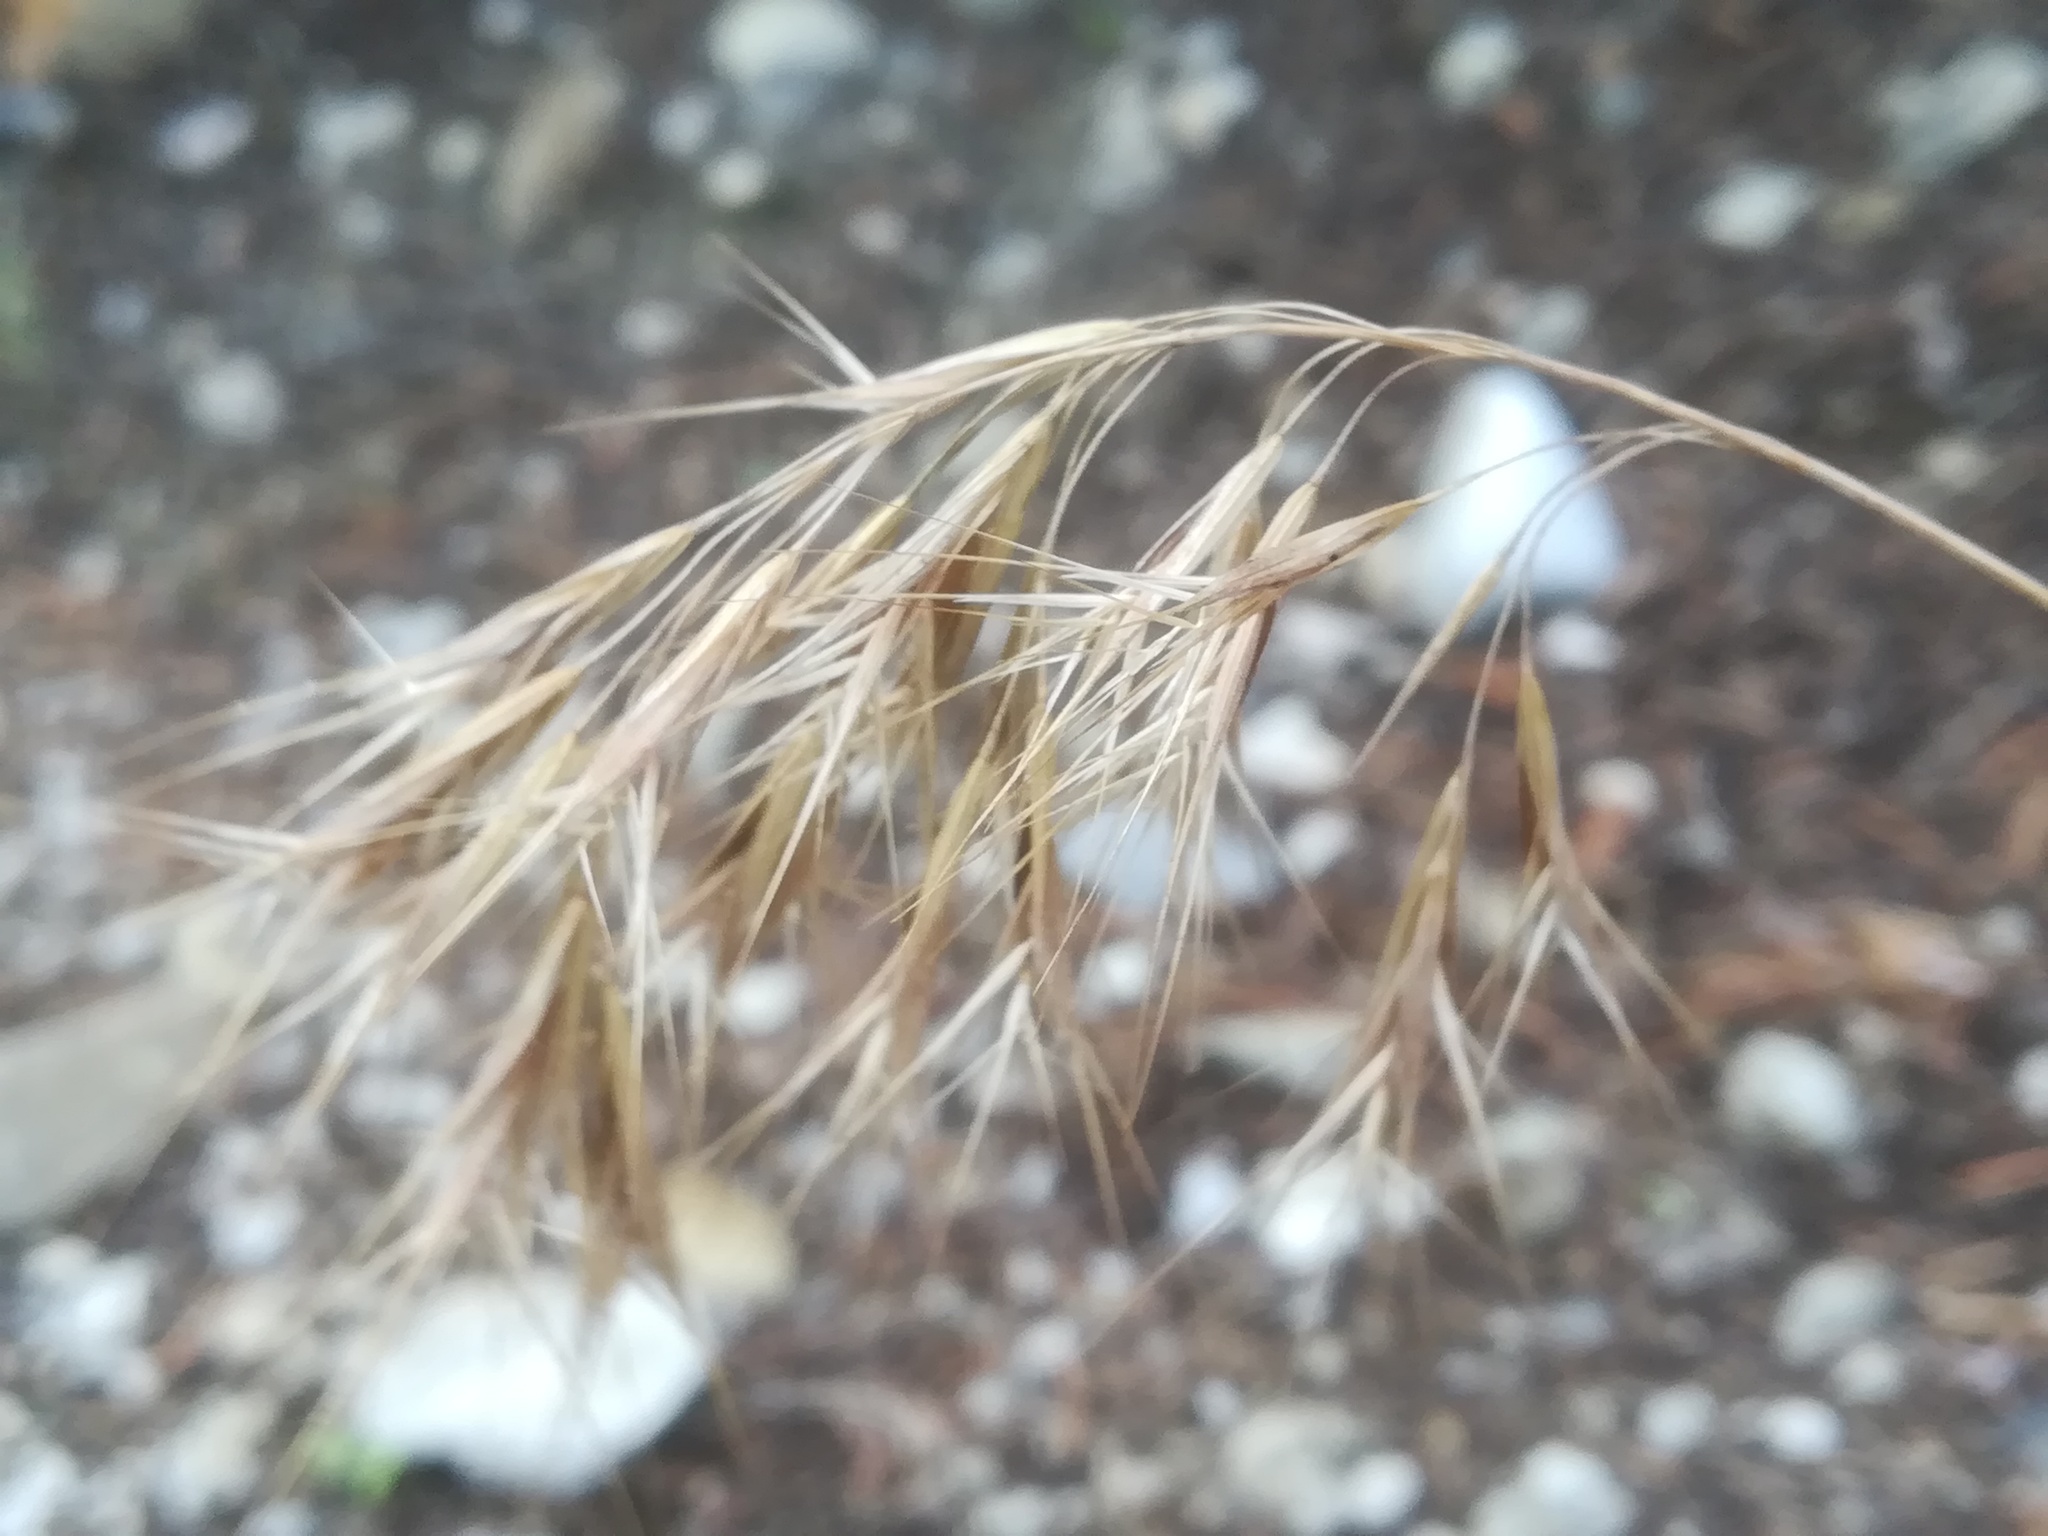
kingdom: Plantae
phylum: Tracheophyta
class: Liliopsida
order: Poales
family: Poaceae
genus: Bromus
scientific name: Bromus tectorum
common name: Cheatgrass
